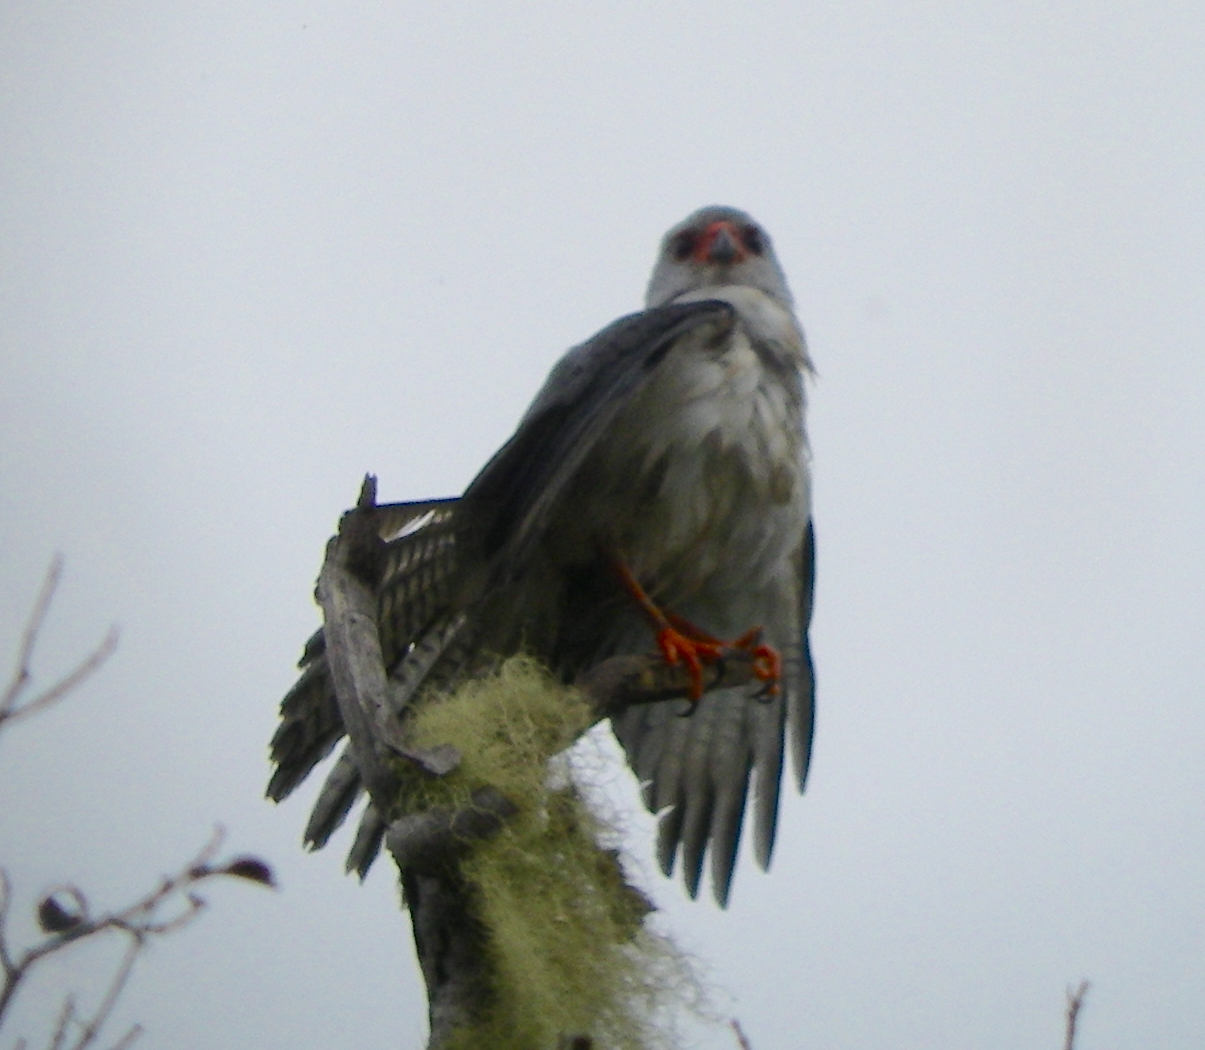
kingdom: Animalia
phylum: Chordata
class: Aves
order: Accipitriformes
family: Accipitridae
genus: Accipiter
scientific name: Accipiter poliocephalus
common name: Grey-headed goshawk
